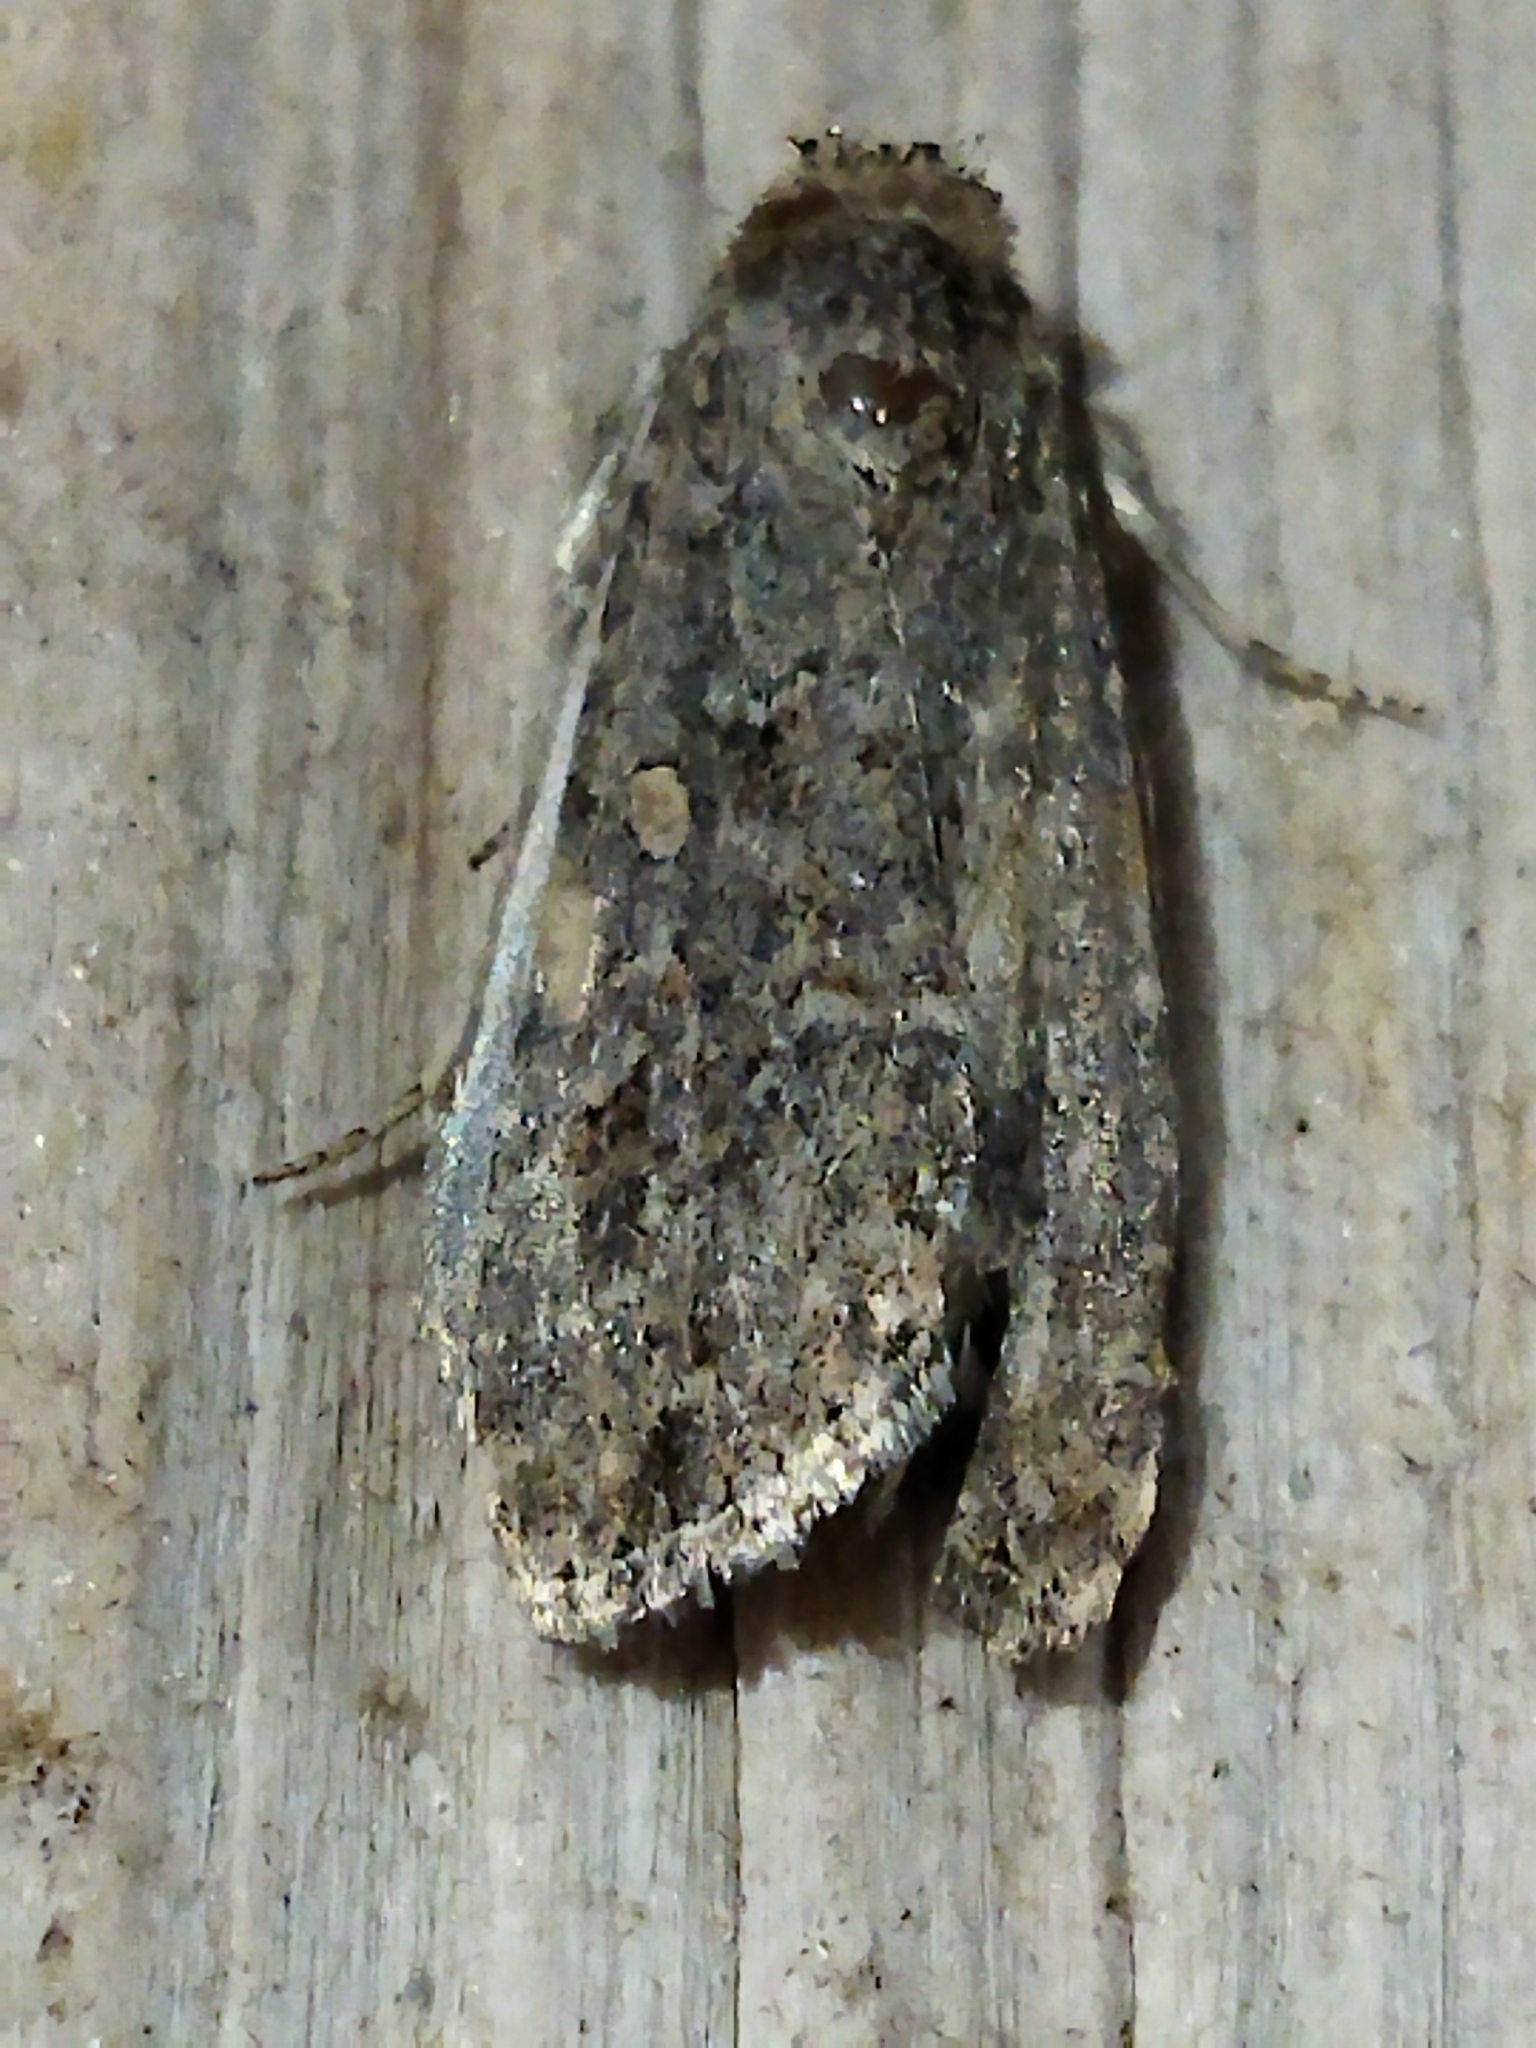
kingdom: Animalia
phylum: Arthropoda
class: Insecta
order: Lepidoptera
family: Noctuidae
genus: Spodoptera
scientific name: Spodoptera exigua
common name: Beet armyworm
